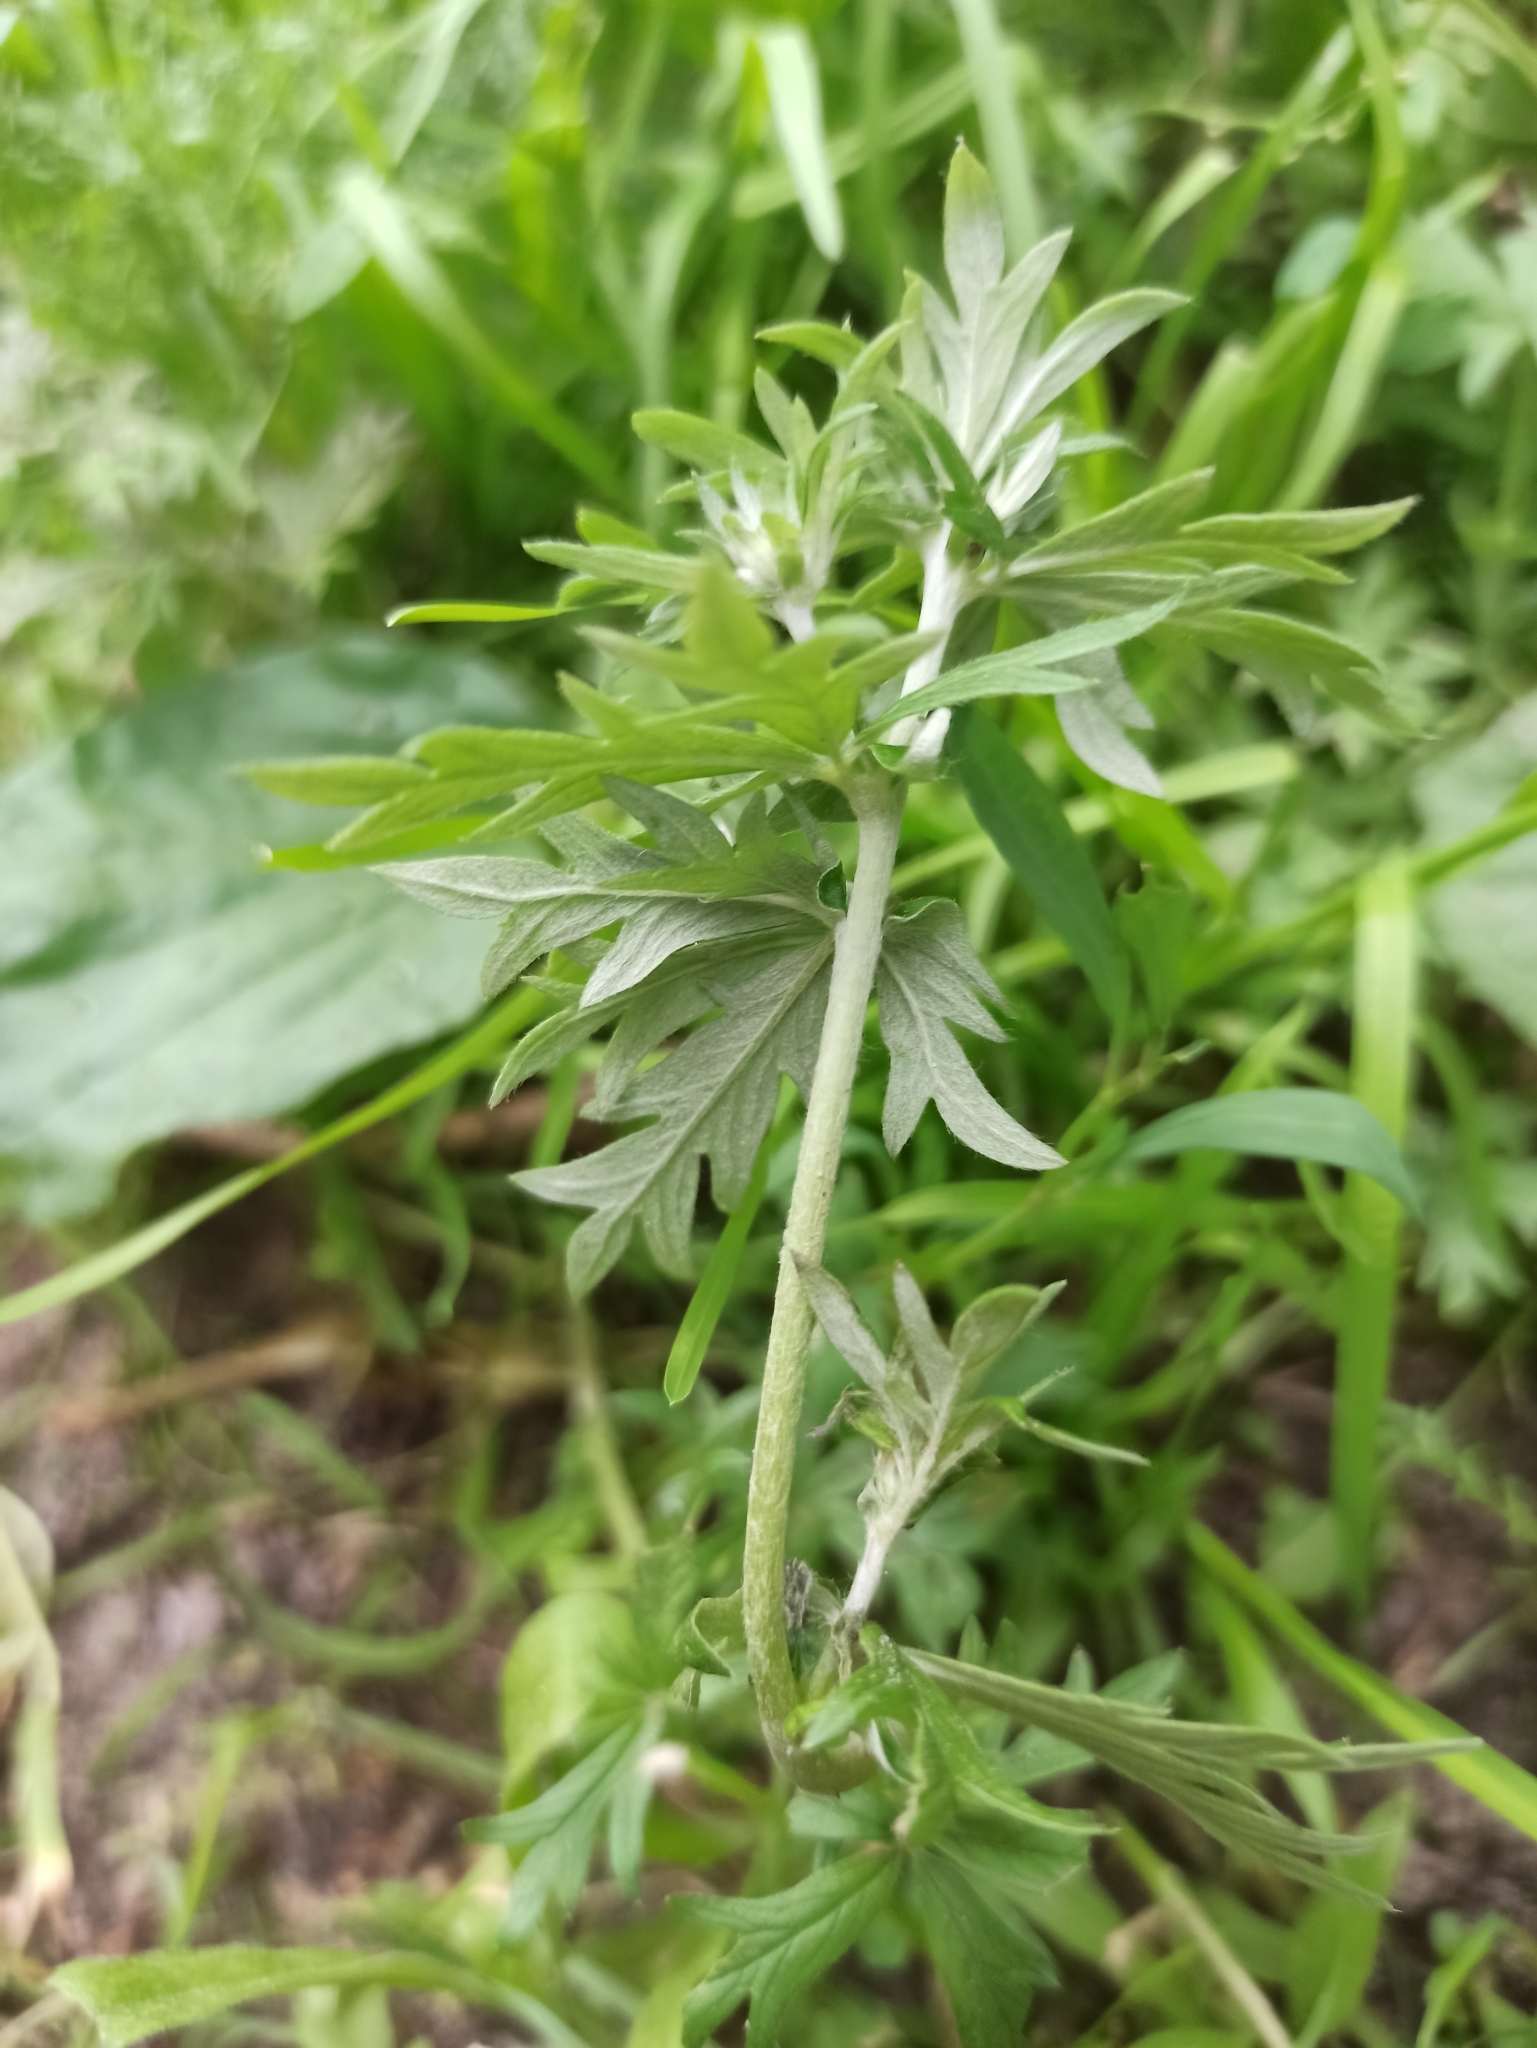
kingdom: Plantae
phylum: Tracheophyta
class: Magnoliopsida
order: Rosales
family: Rosaceae
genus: Potentilla
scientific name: Potentilla argentea
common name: Hoary cinquefoil
